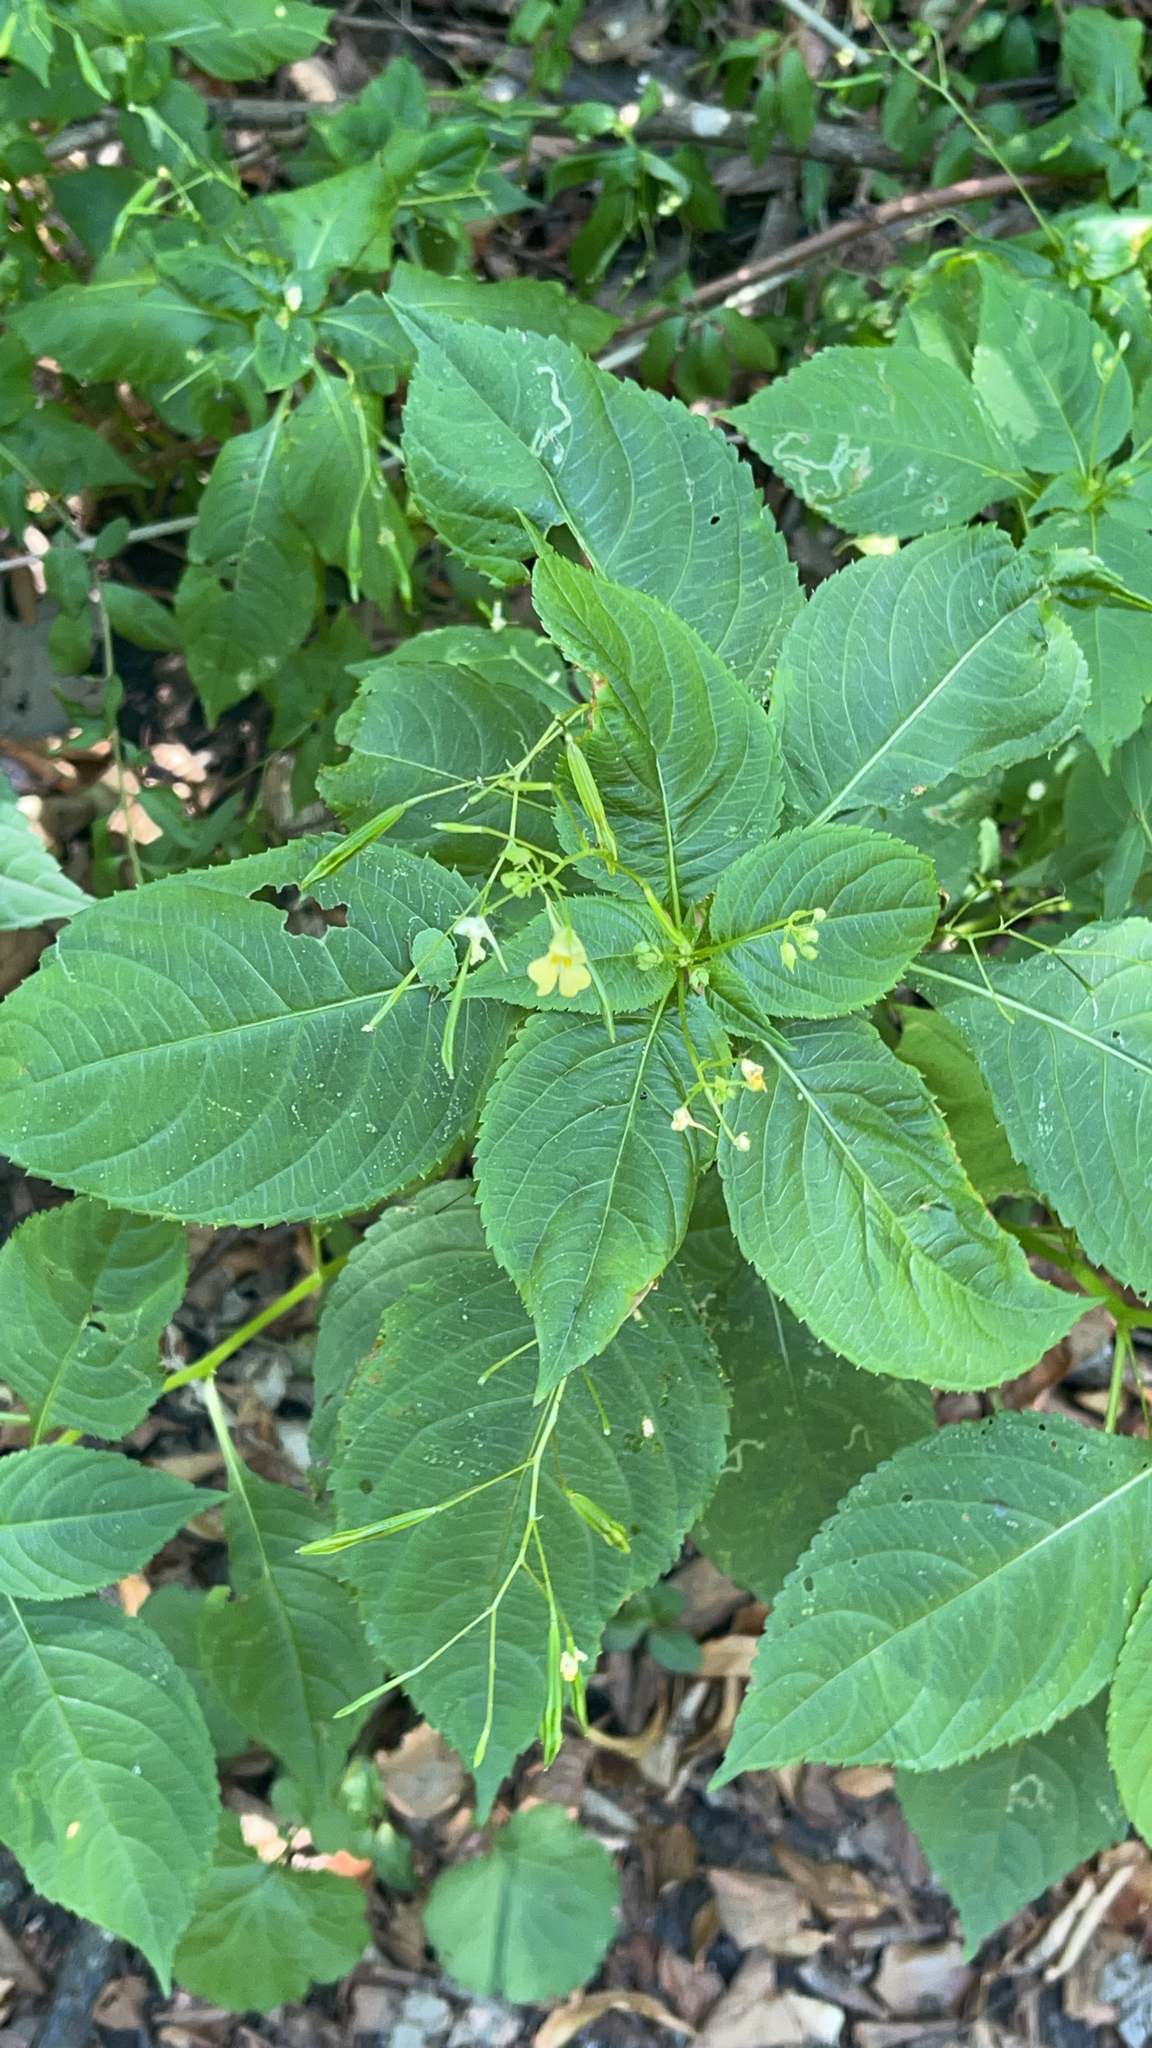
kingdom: Plantae
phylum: Tracheophyta
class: Magnoliopsida
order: Ericales
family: Balsaminaceae
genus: Impatiens
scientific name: Impatiens parviflora
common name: Small balsam
